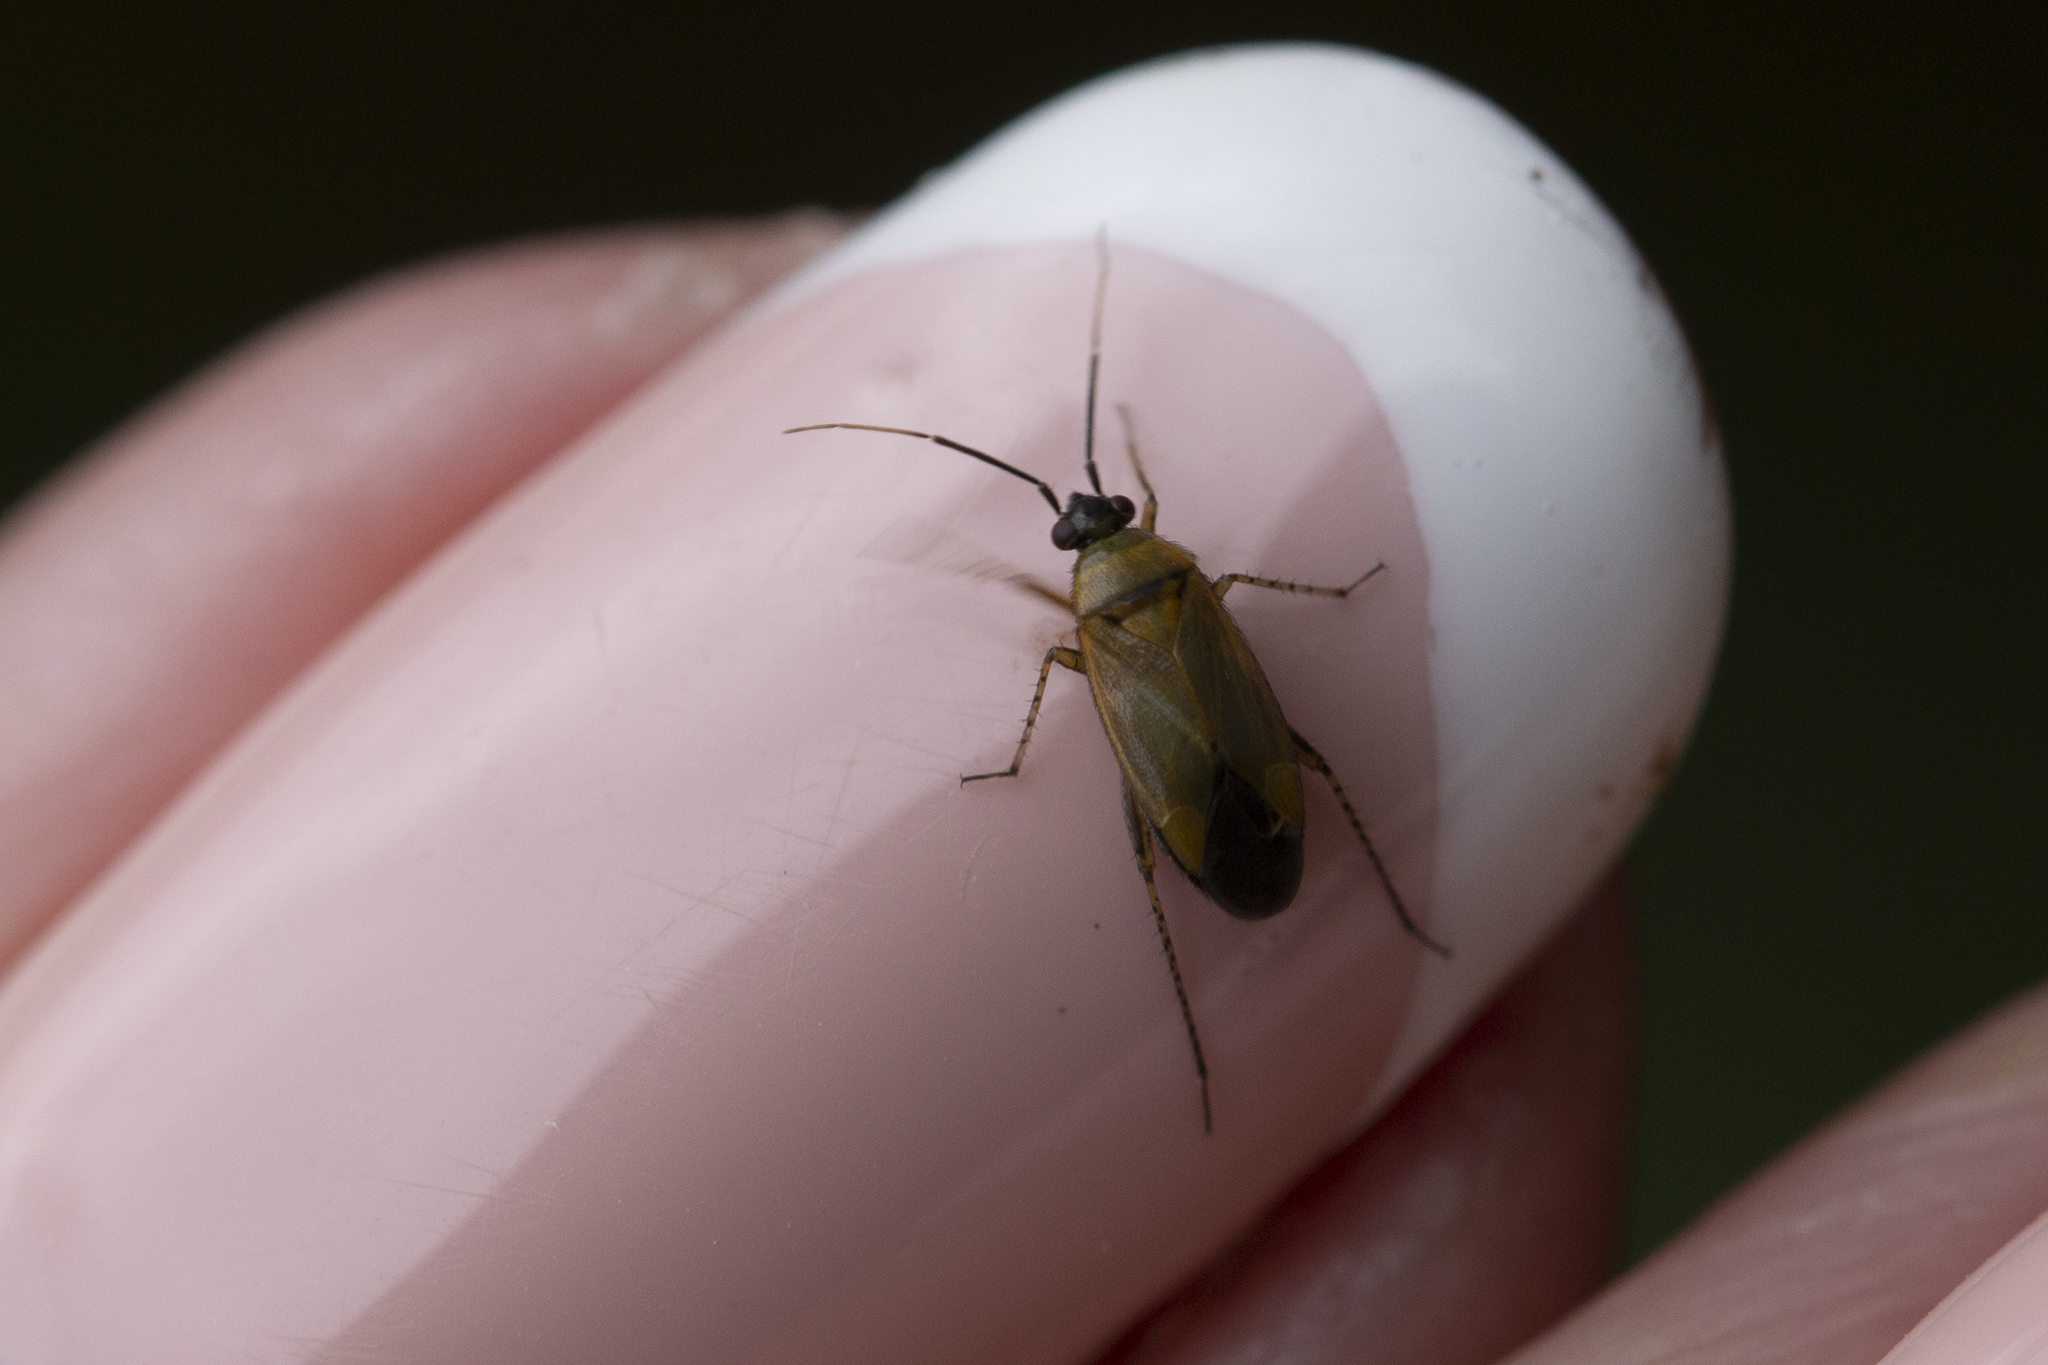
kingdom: Animalia
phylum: Arthropoda
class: Insecta
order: Hemiptera
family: Miridae
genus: Plagiognathus
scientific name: Plagiognathus arbustorum
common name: Plant bug
